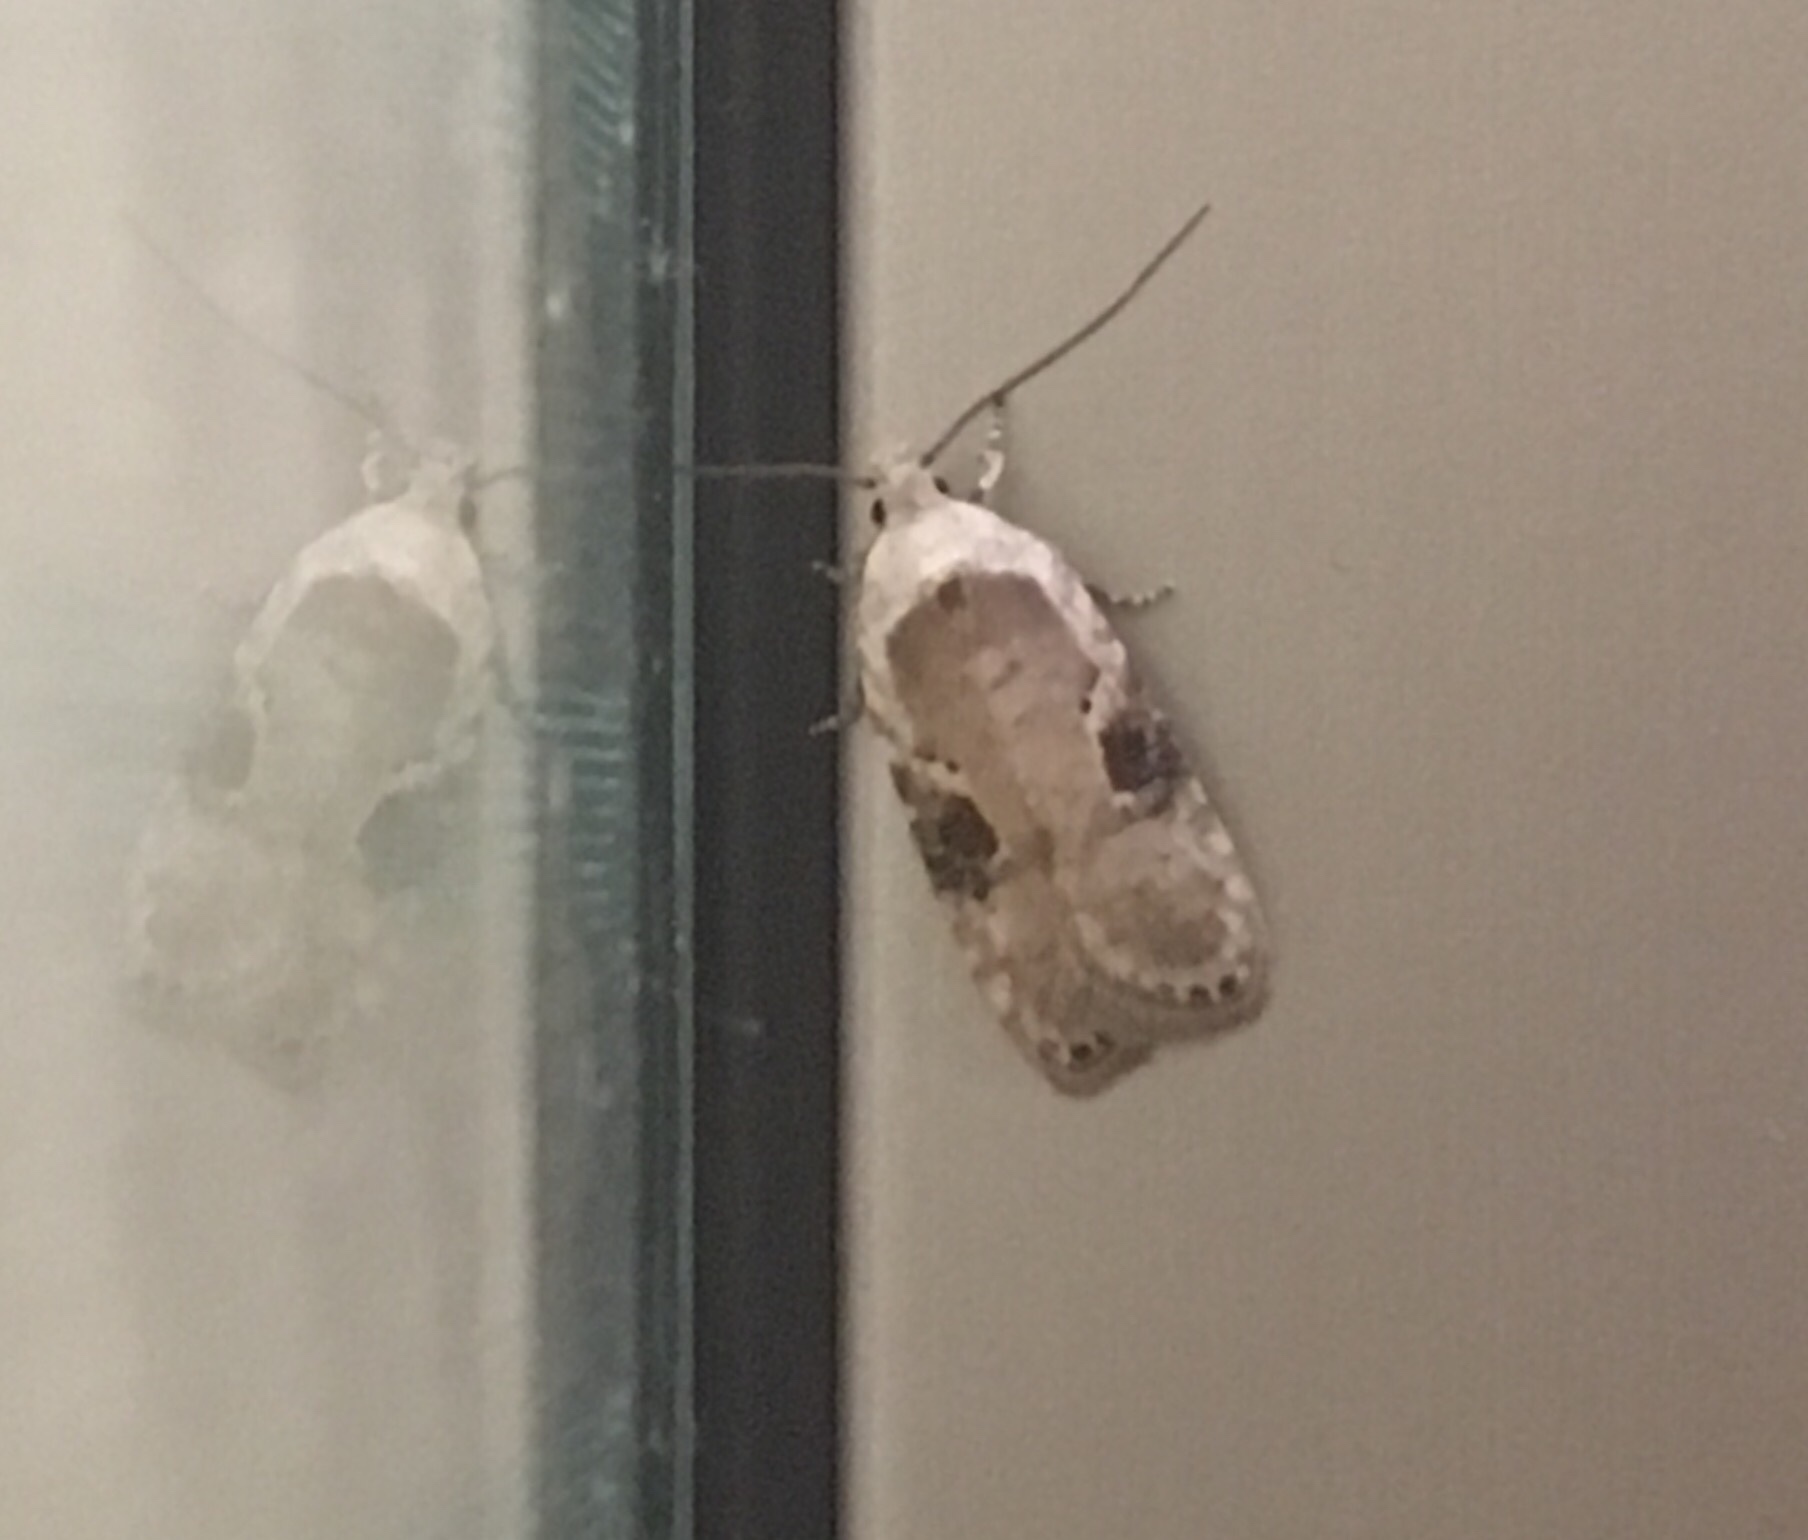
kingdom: Animalia
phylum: Arthropoda
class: Insecta
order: Lepidoptera
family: Depressariidae
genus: Agonopterix
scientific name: Agonopterix alstroemeriana
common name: Moth
